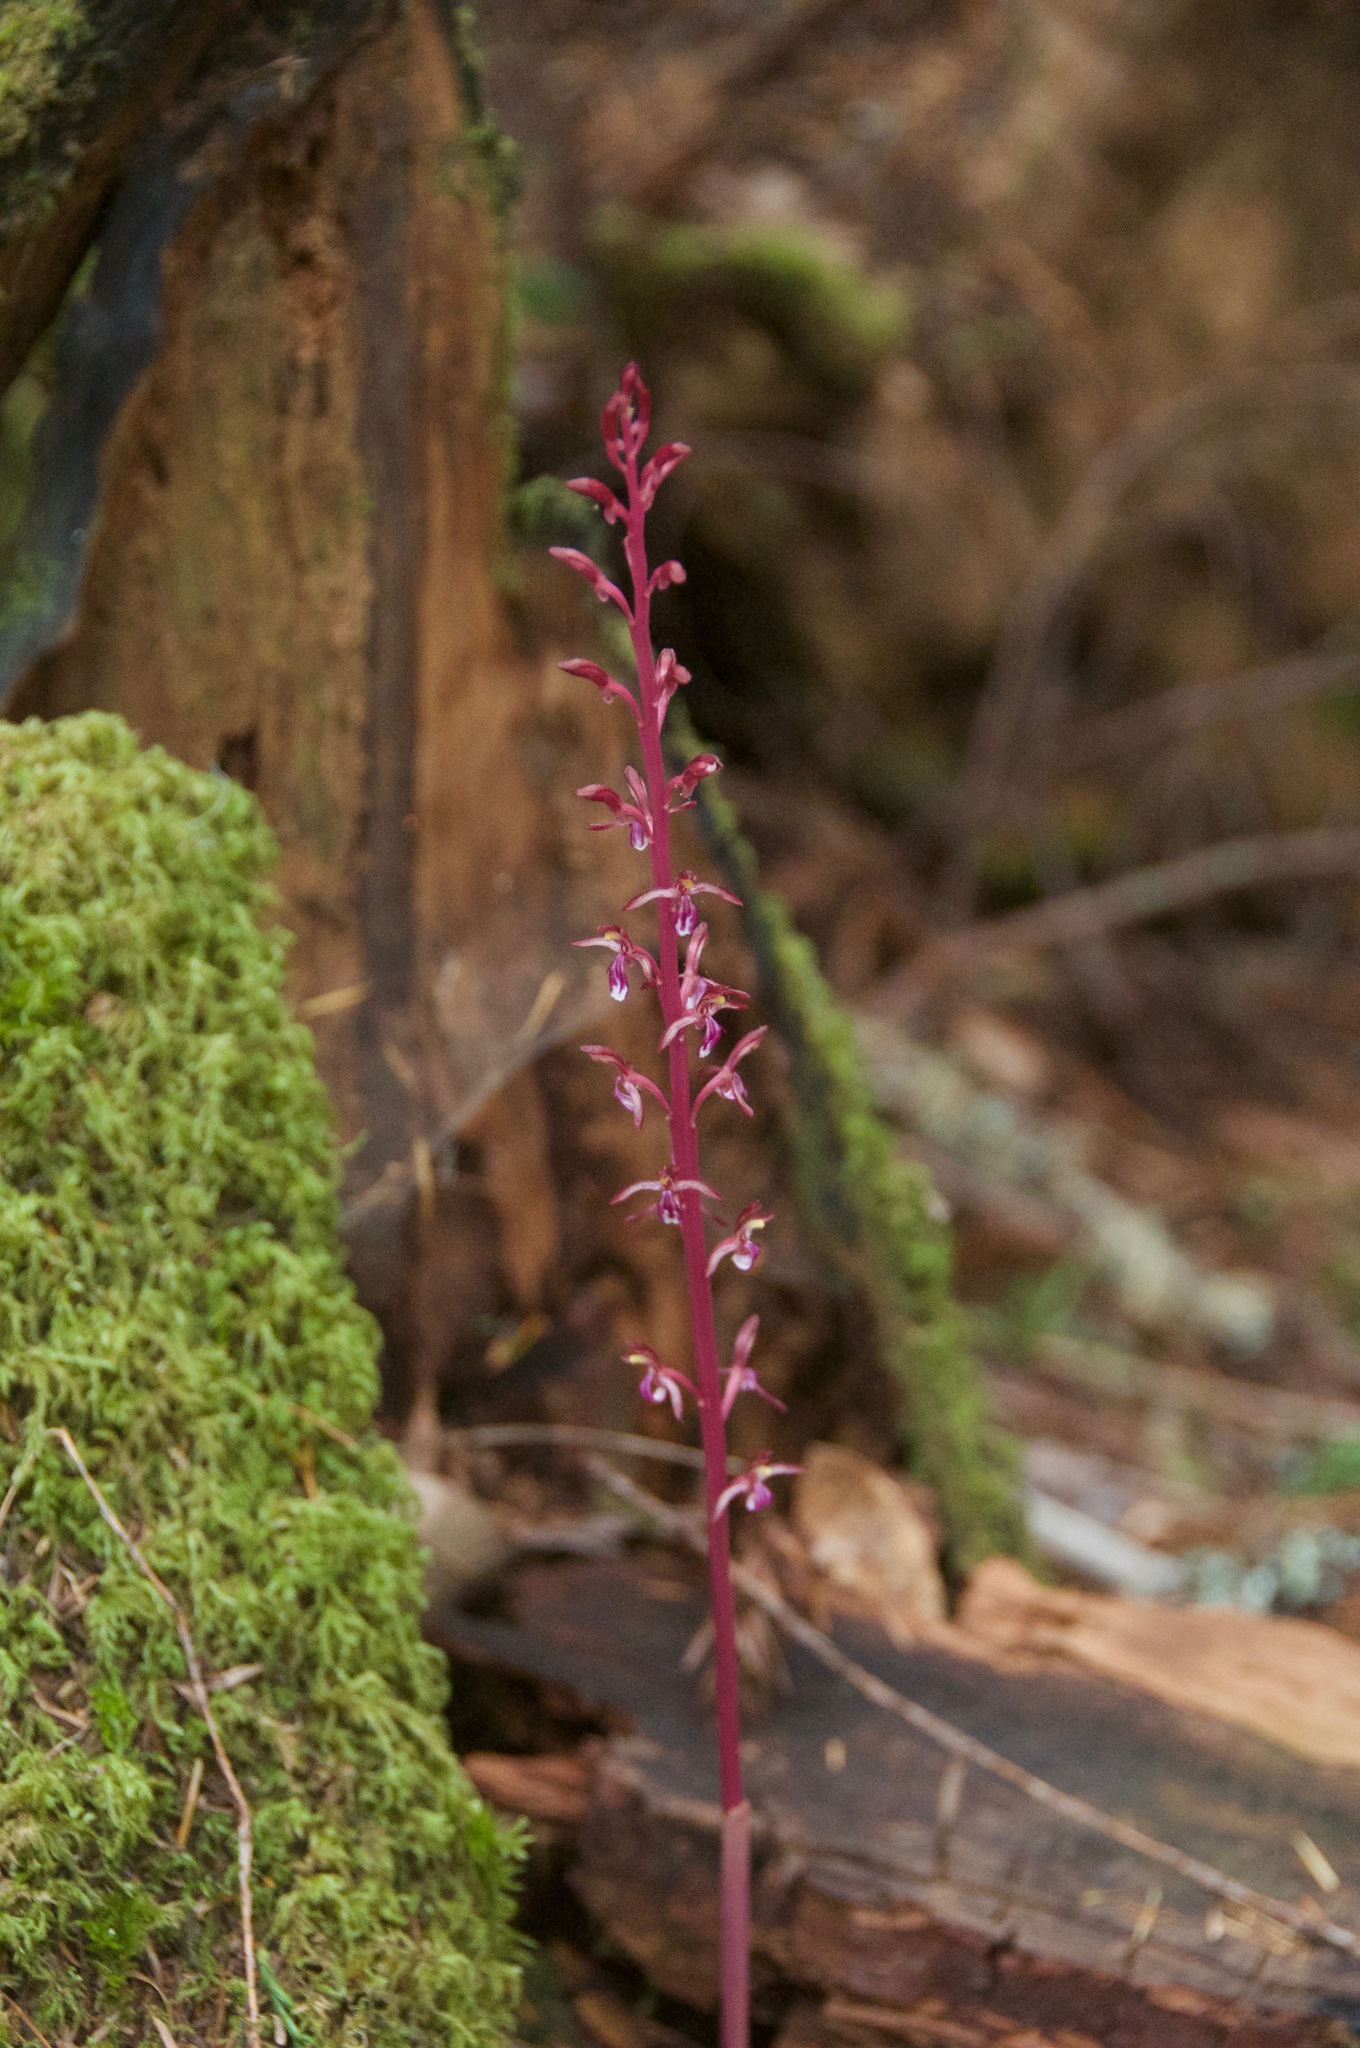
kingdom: Plantae
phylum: Tracheophyta
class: Liliopsida
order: Asparagales
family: Orchidaceae
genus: Corallorhiza
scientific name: Corallorhiza mertensiana
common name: Pacific coralroot
